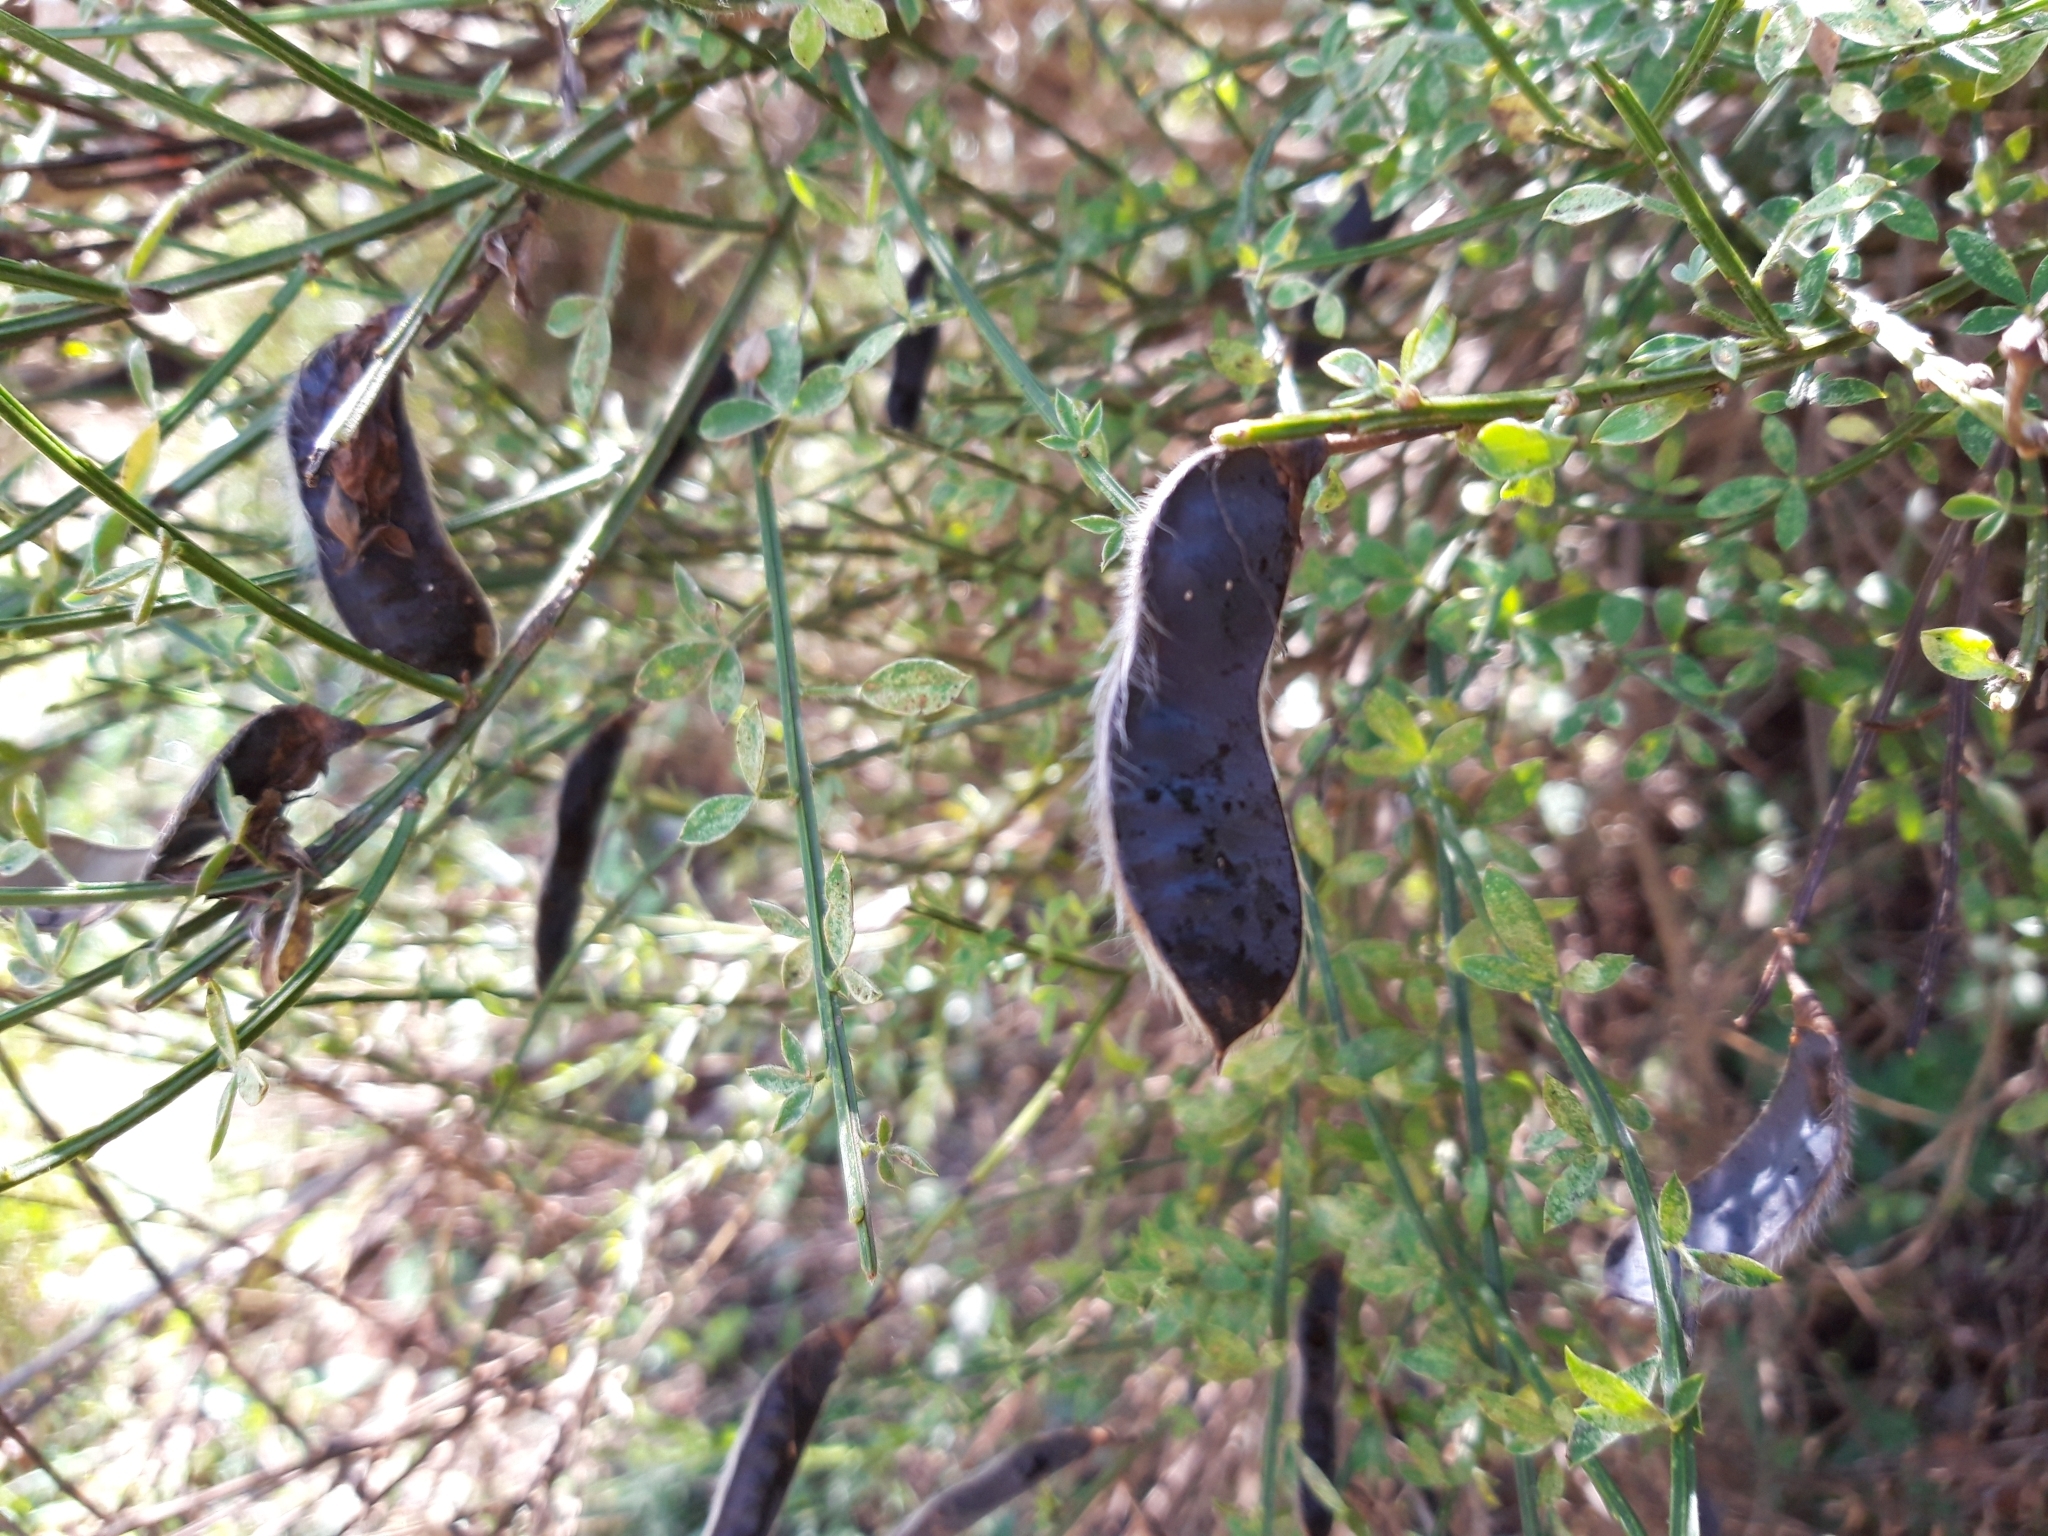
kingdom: Plantae
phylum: Tracheophyta
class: Magnoliopsida
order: Fabales
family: Fabaceae
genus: Cytisus
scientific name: Cytisus scoparius
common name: Scotch broom
